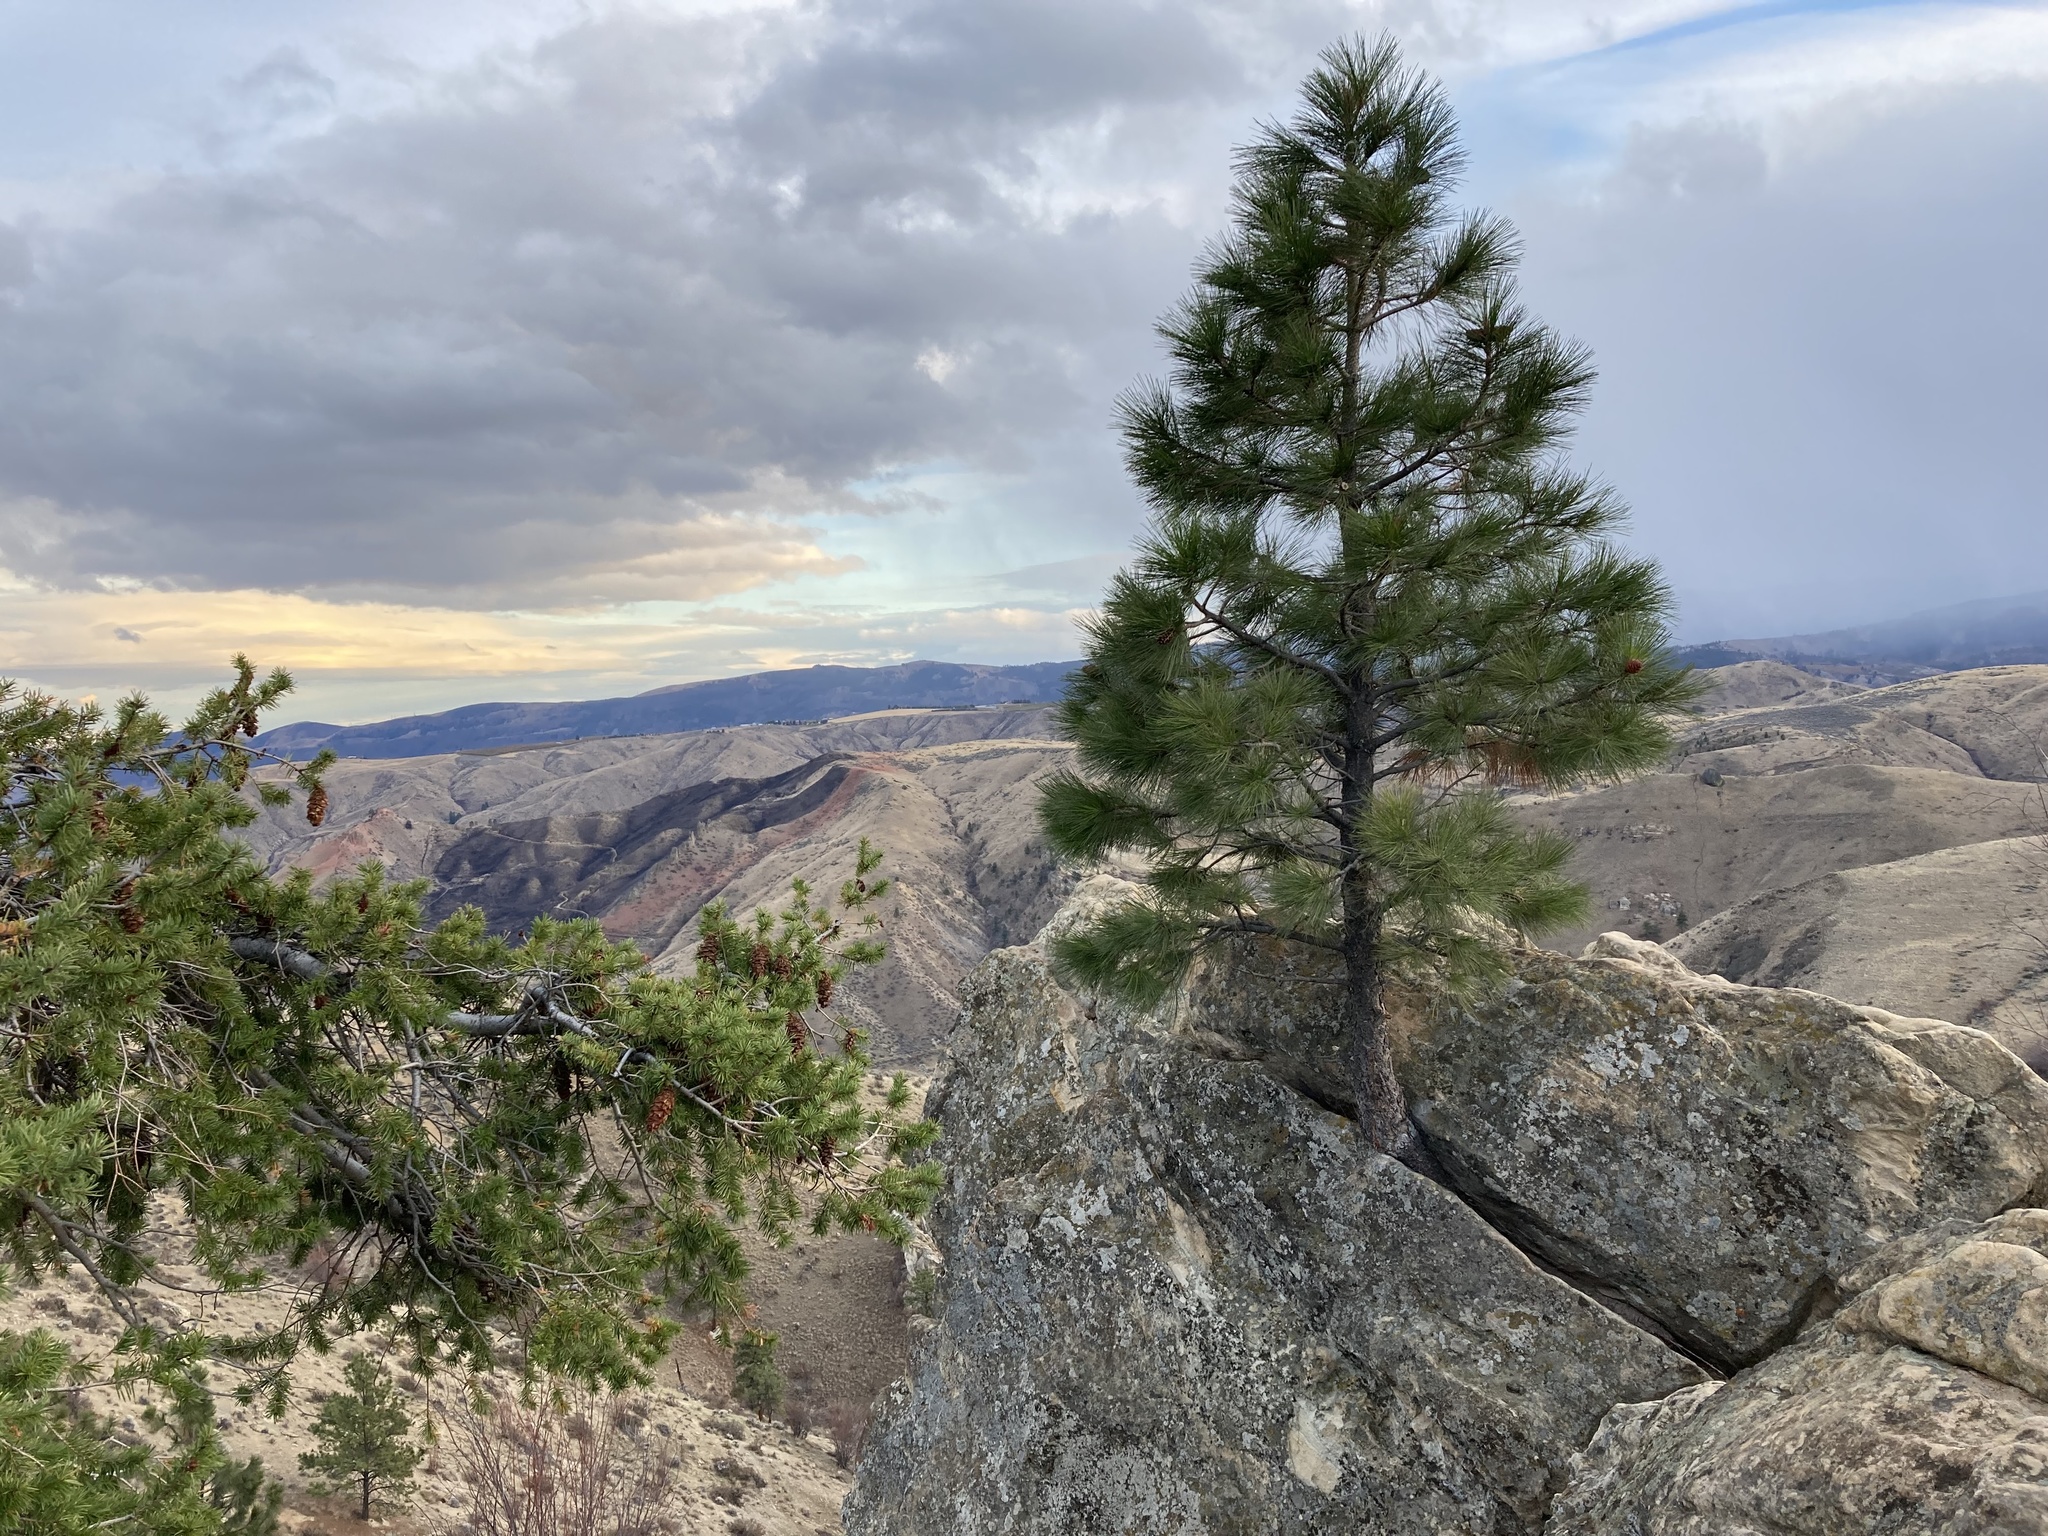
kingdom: Plantae
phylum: Tracheophyta
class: Pinopsida
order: Pinales
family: Pinaceae
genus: Pseudotsuga
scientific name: Pseudotsuga menziesii
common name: Douglas fir
